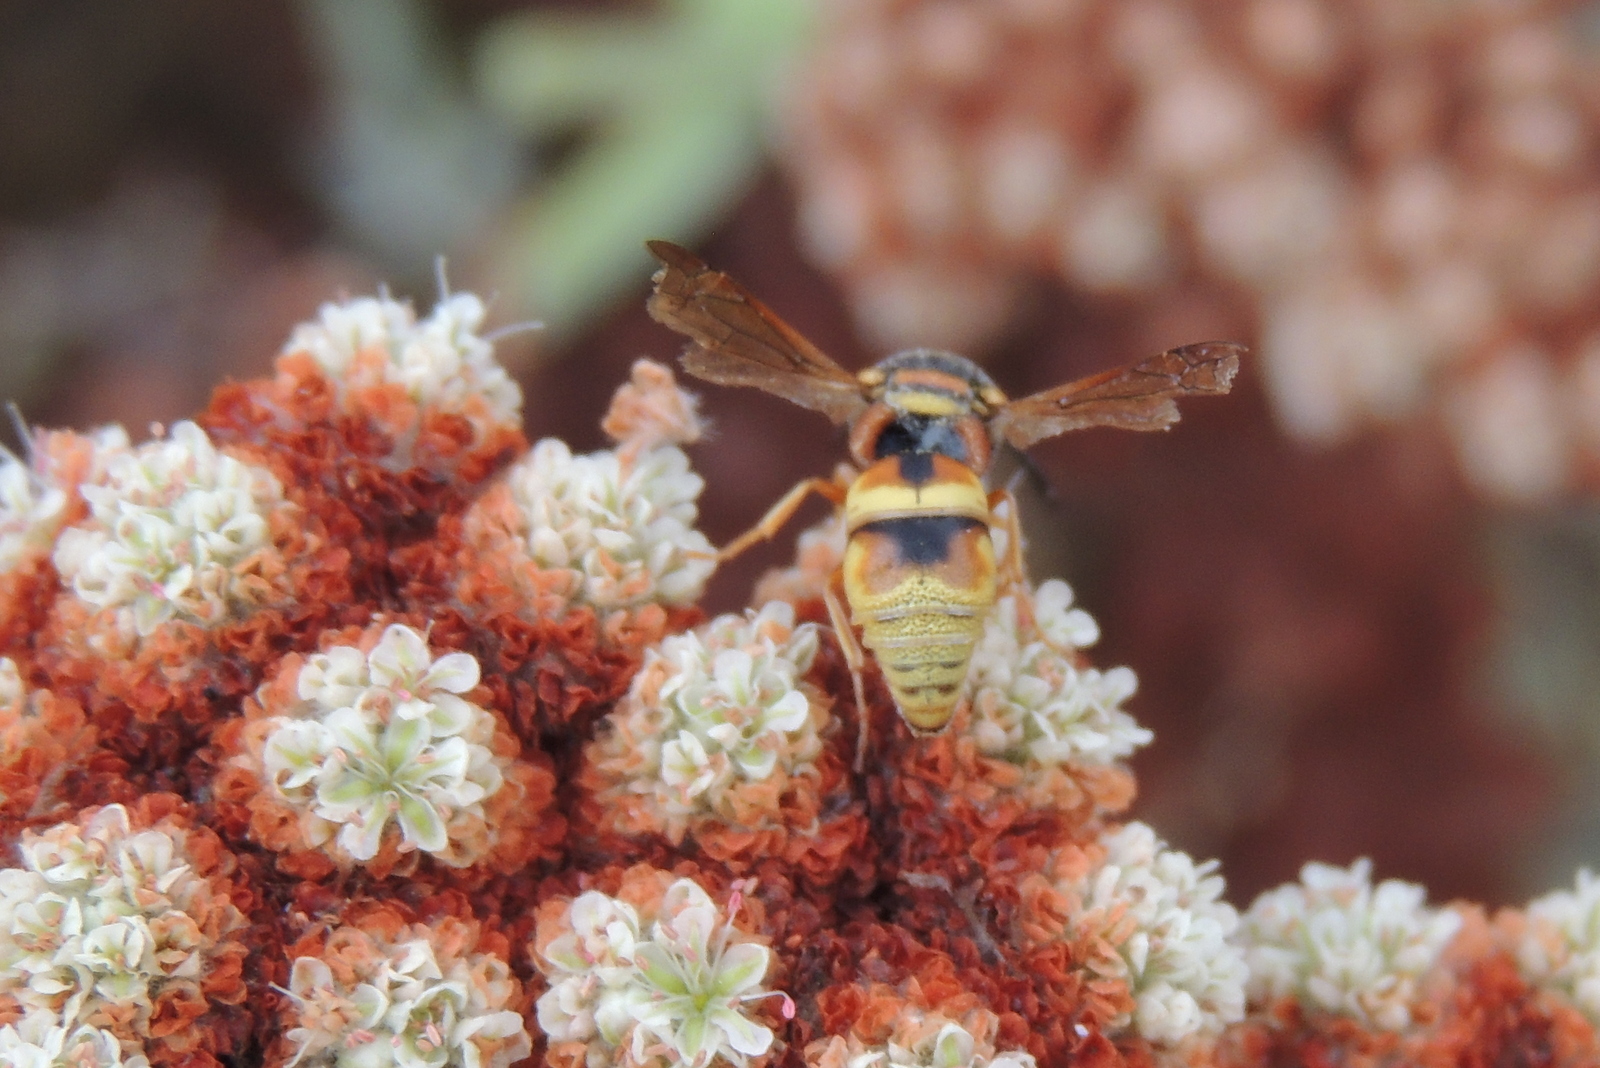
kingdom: Animalia
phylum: Arthropoda
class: Insecta
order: Hymenoptera
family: Eumenidae
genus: Euodynerus
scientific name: Euodynerus hidalgo
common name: Wasp
